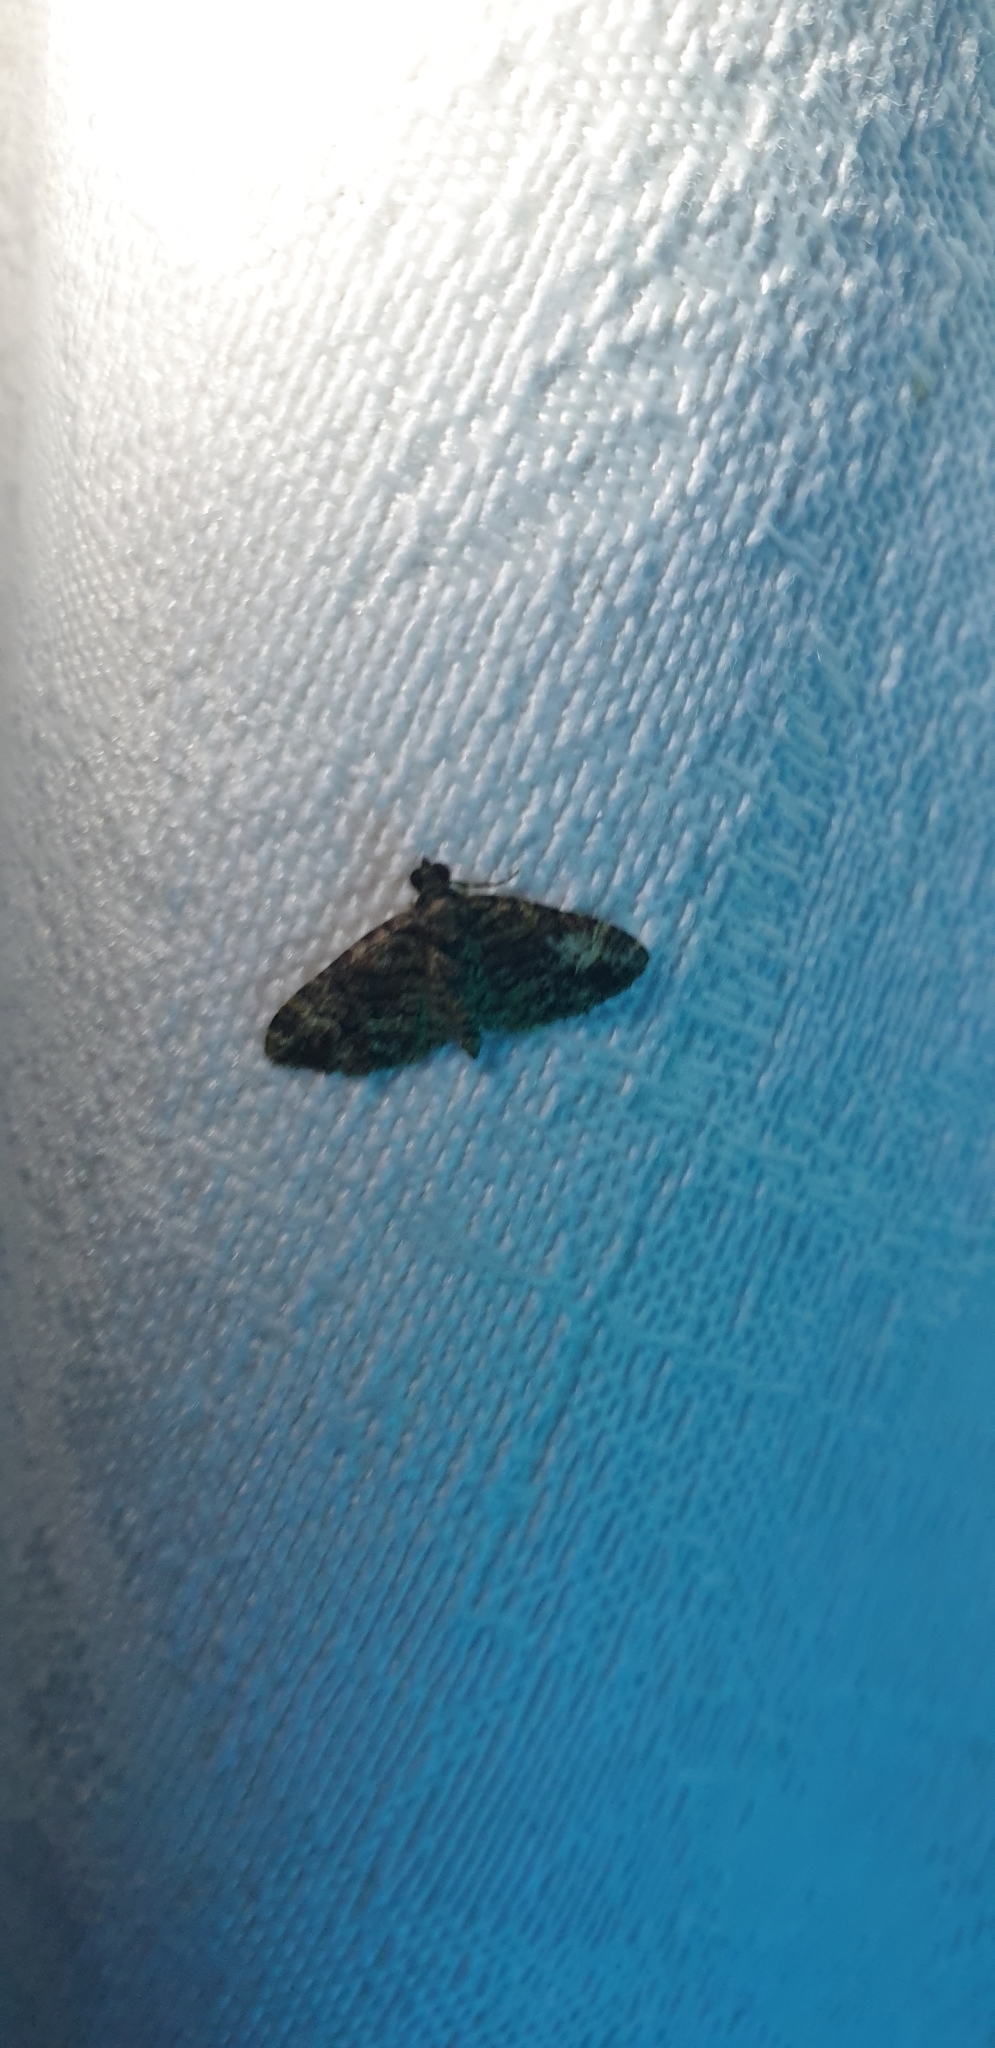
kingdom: Animalia
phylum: Arthropoda
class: Insecta
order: Lepidoptera
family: Geometridae
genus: Epyaxa
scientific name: Epyaxa sodaliata
